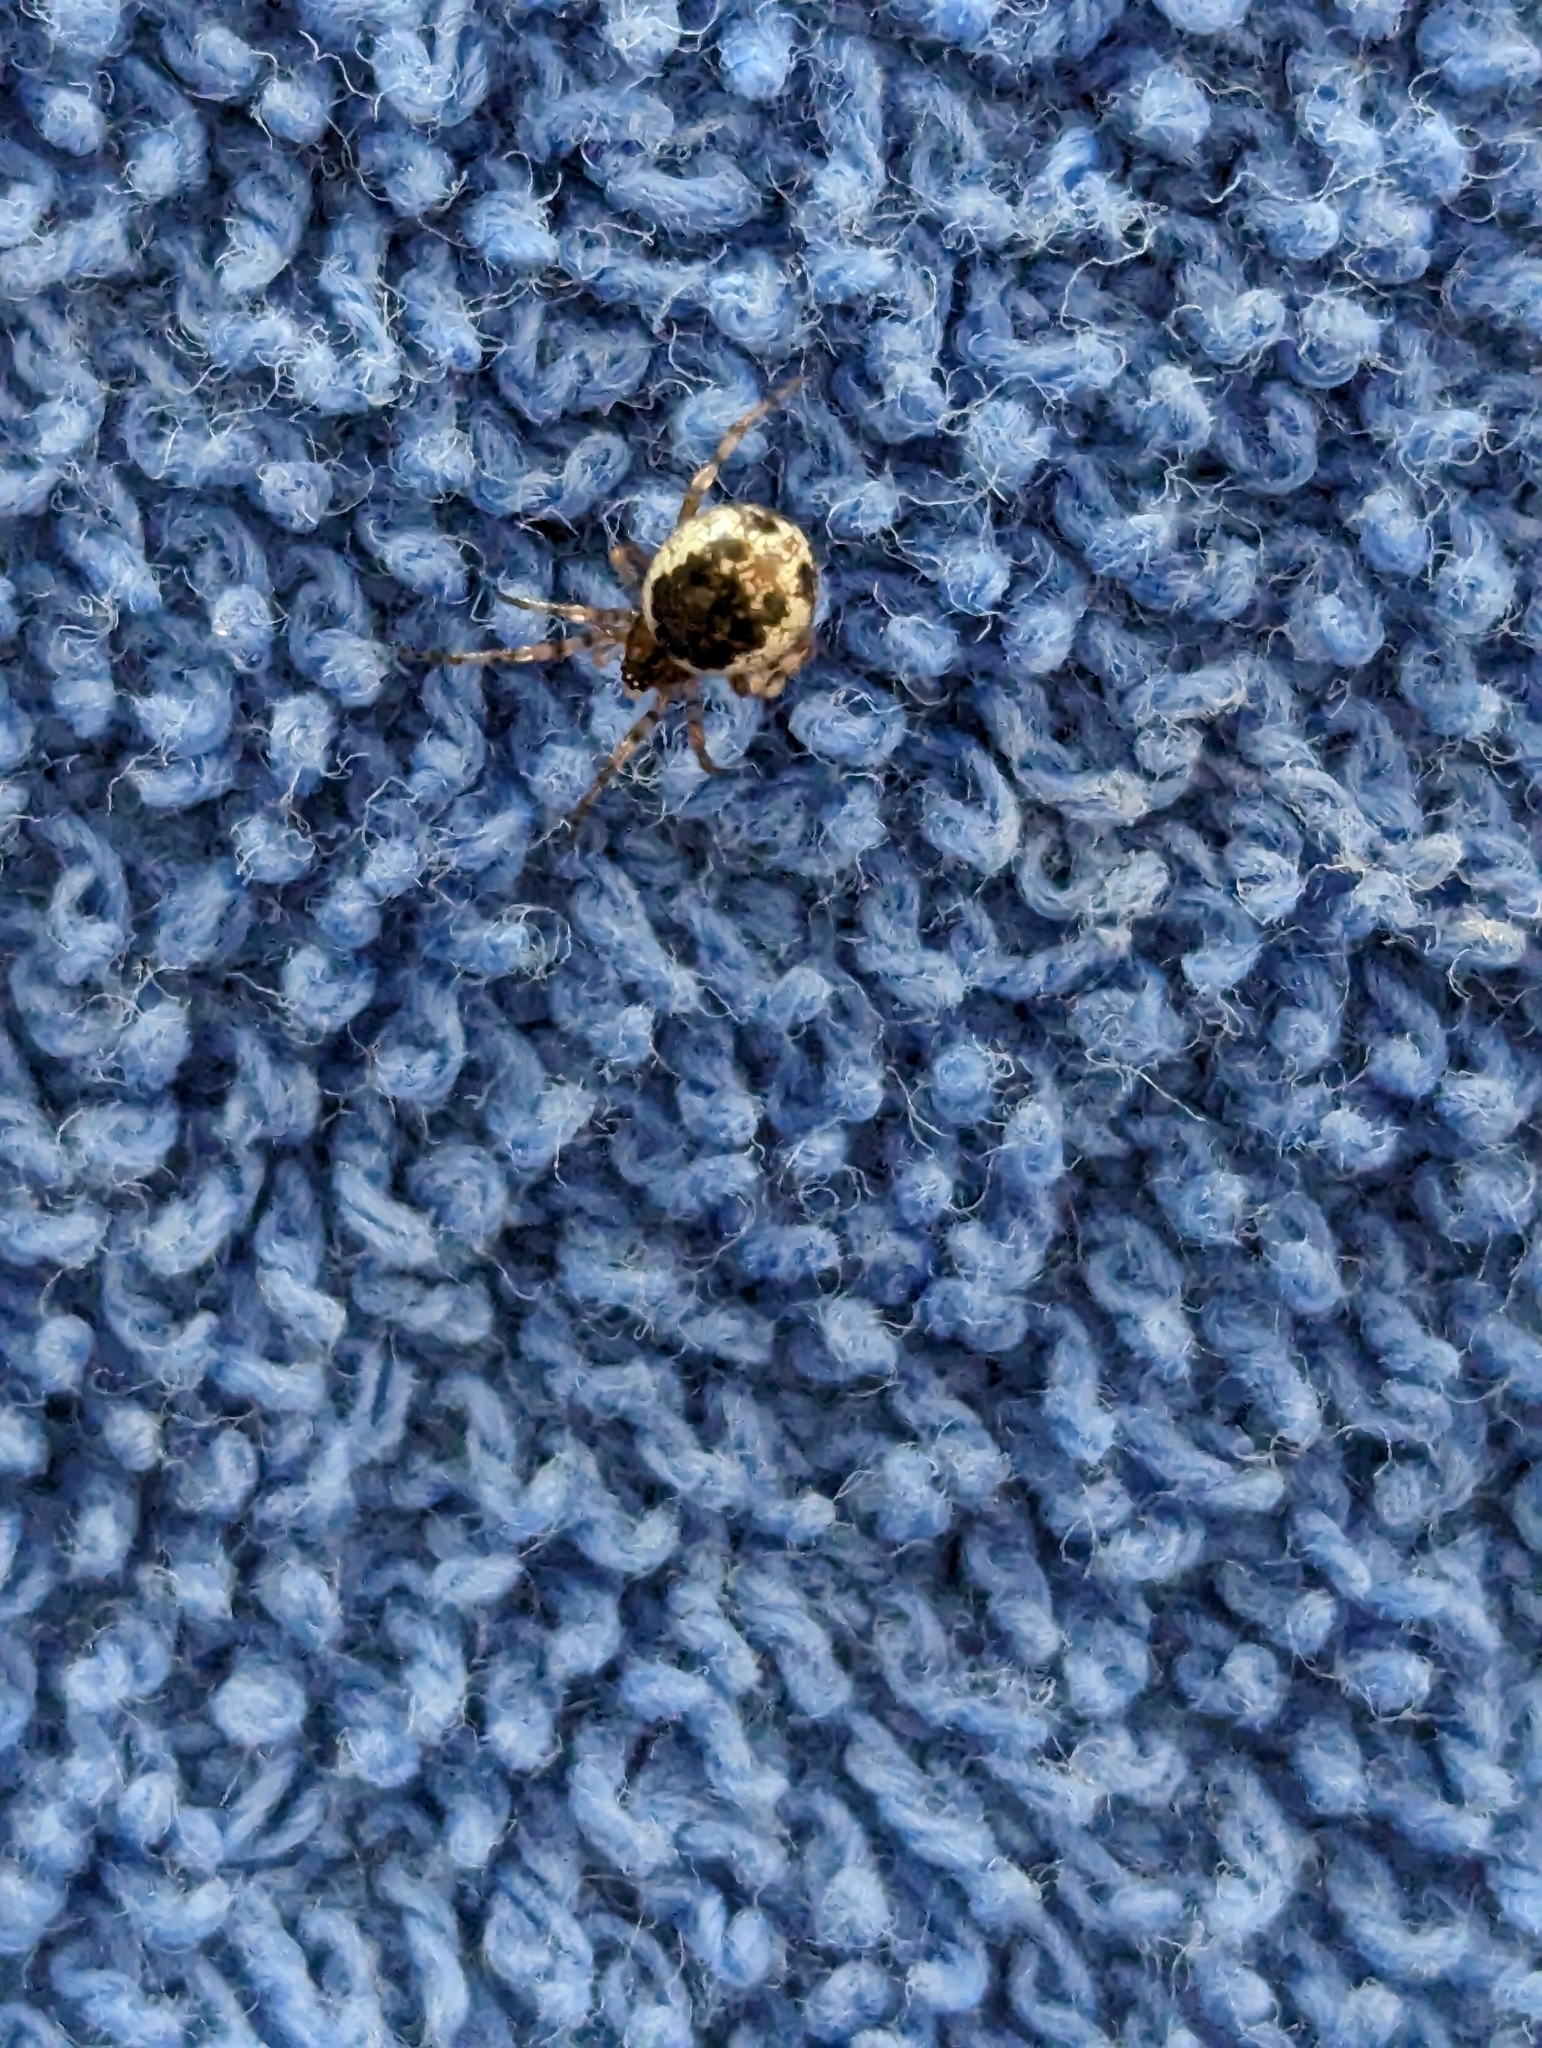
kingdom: Animalia
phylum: Arthropoda
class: Arachnida
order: Araneae
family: Theridiidae
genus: Sardinidion
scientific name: Sardinidion blackwalli
